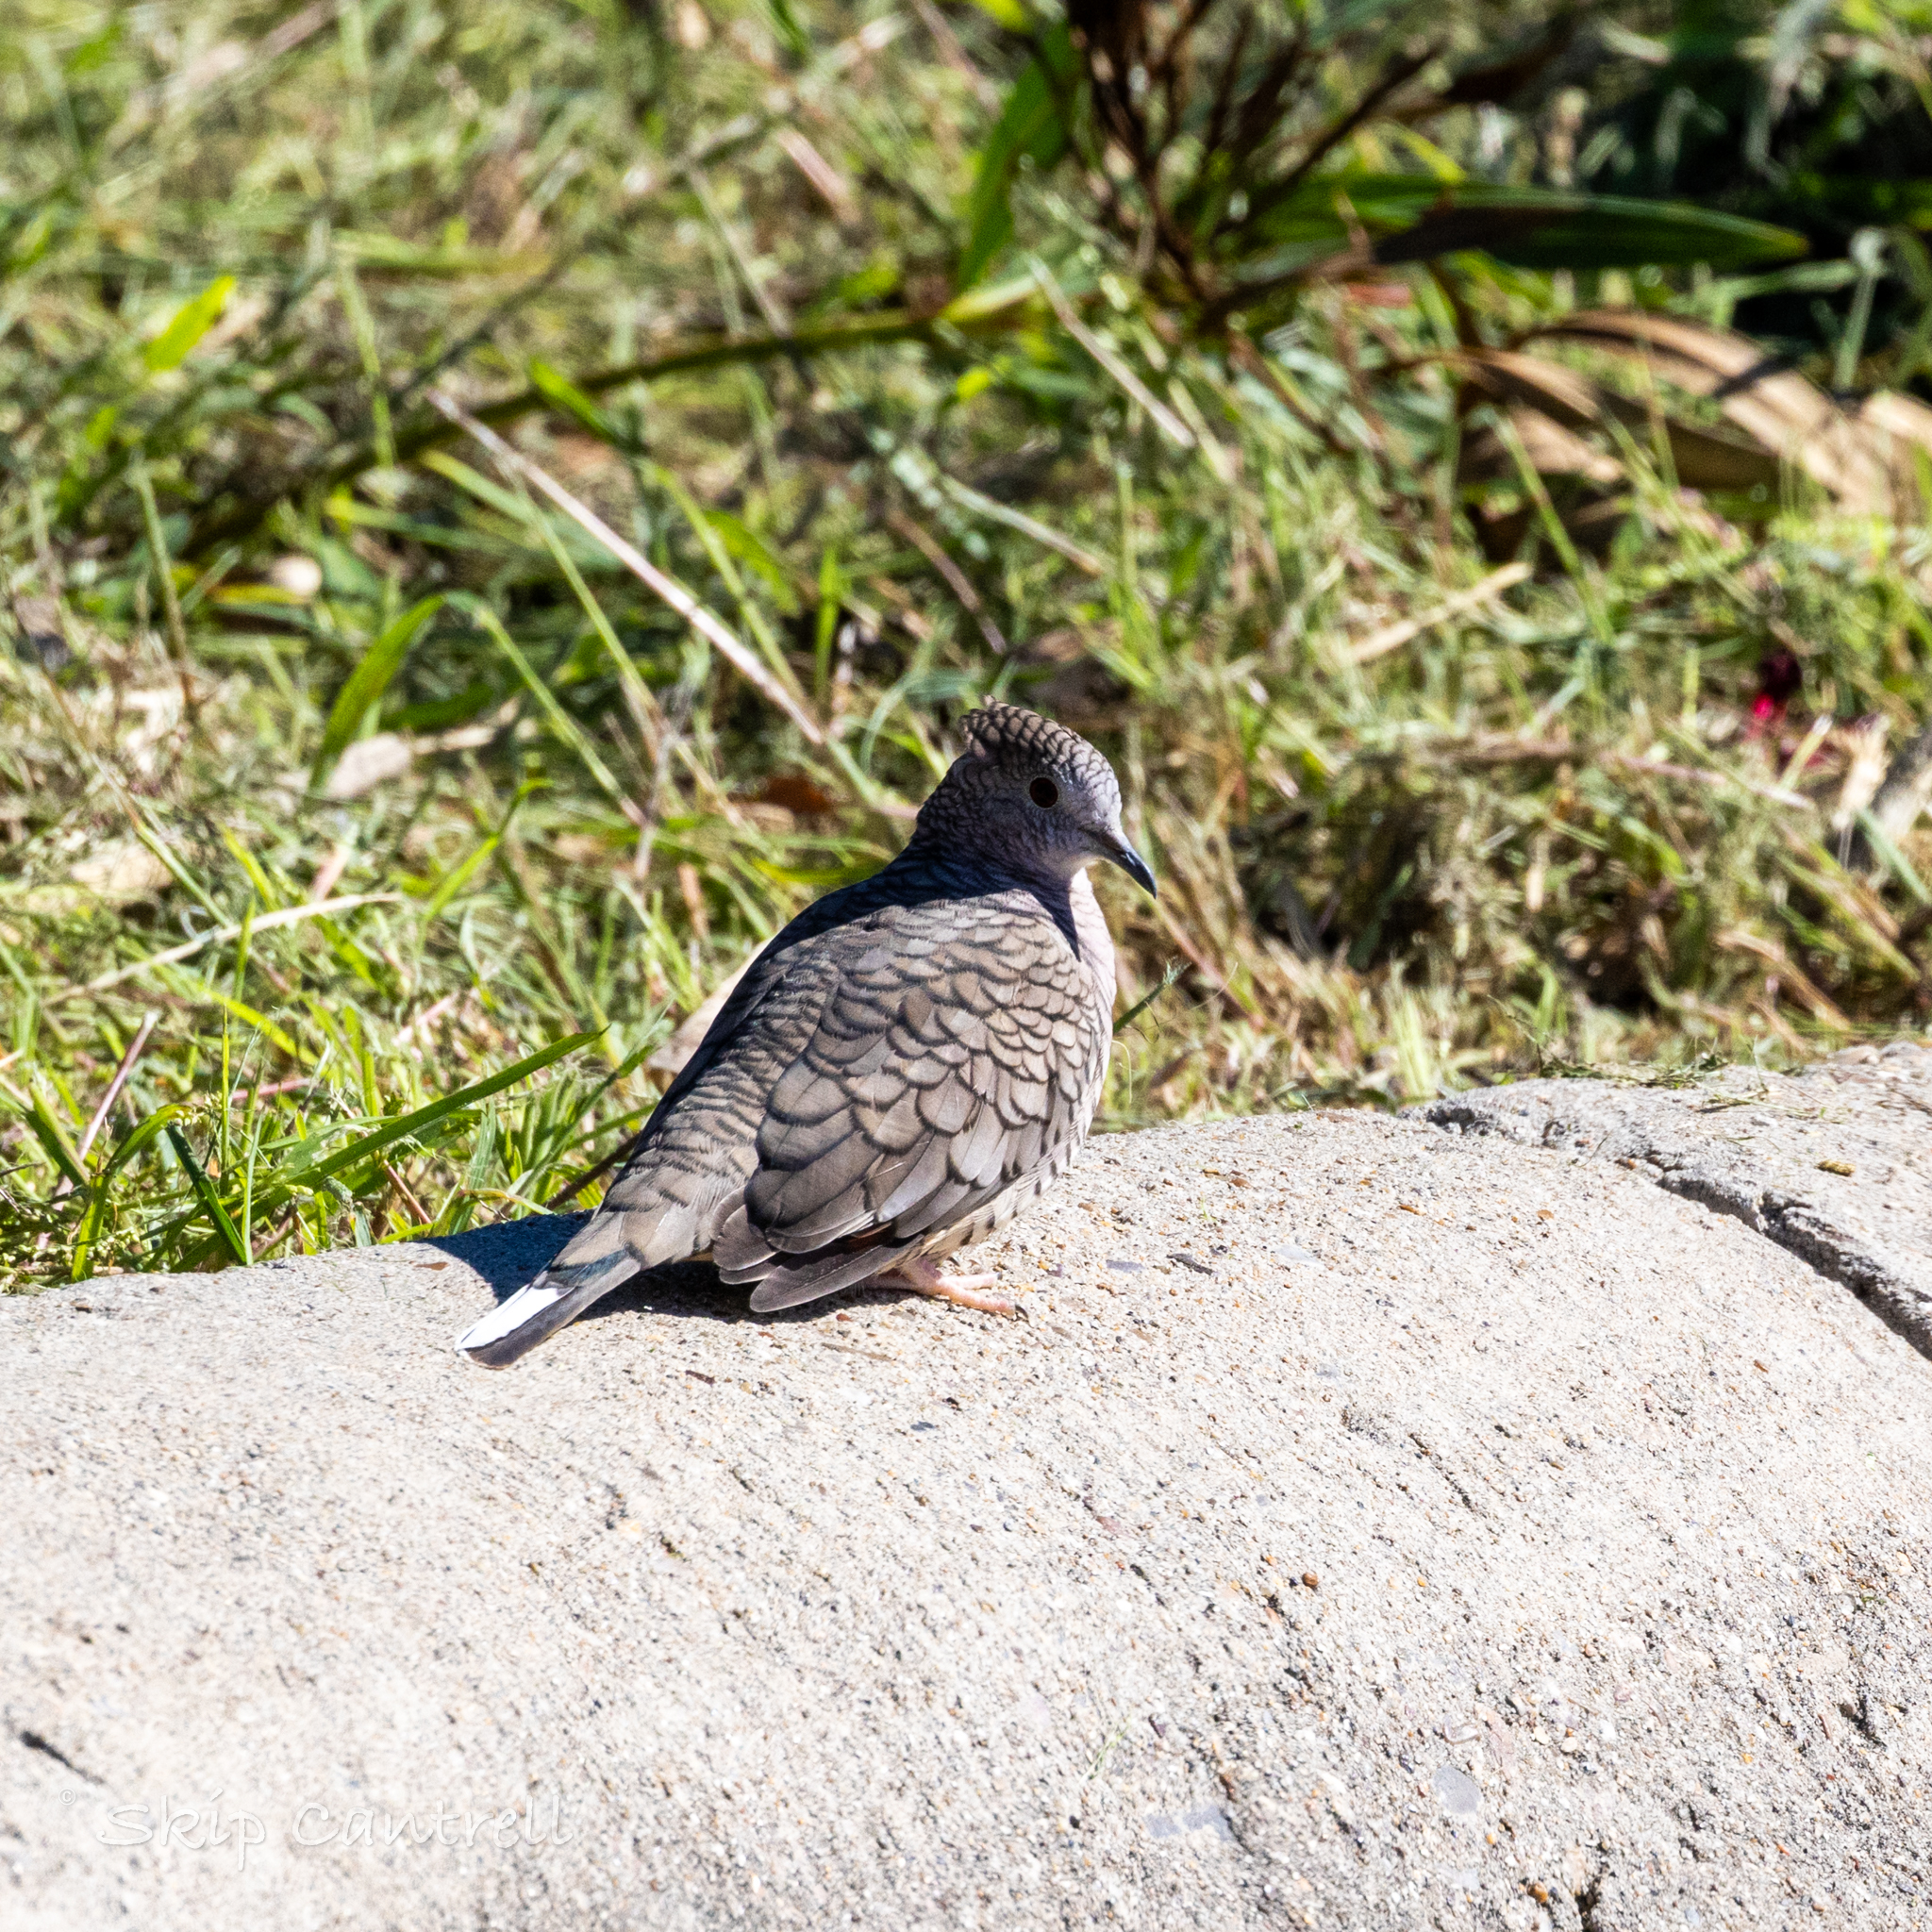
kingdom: Animalia
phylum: Chordata
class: Aves
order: Columbiformes
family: Columbidae
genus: Columbina
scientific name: Columbina inca
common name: Inca dove
